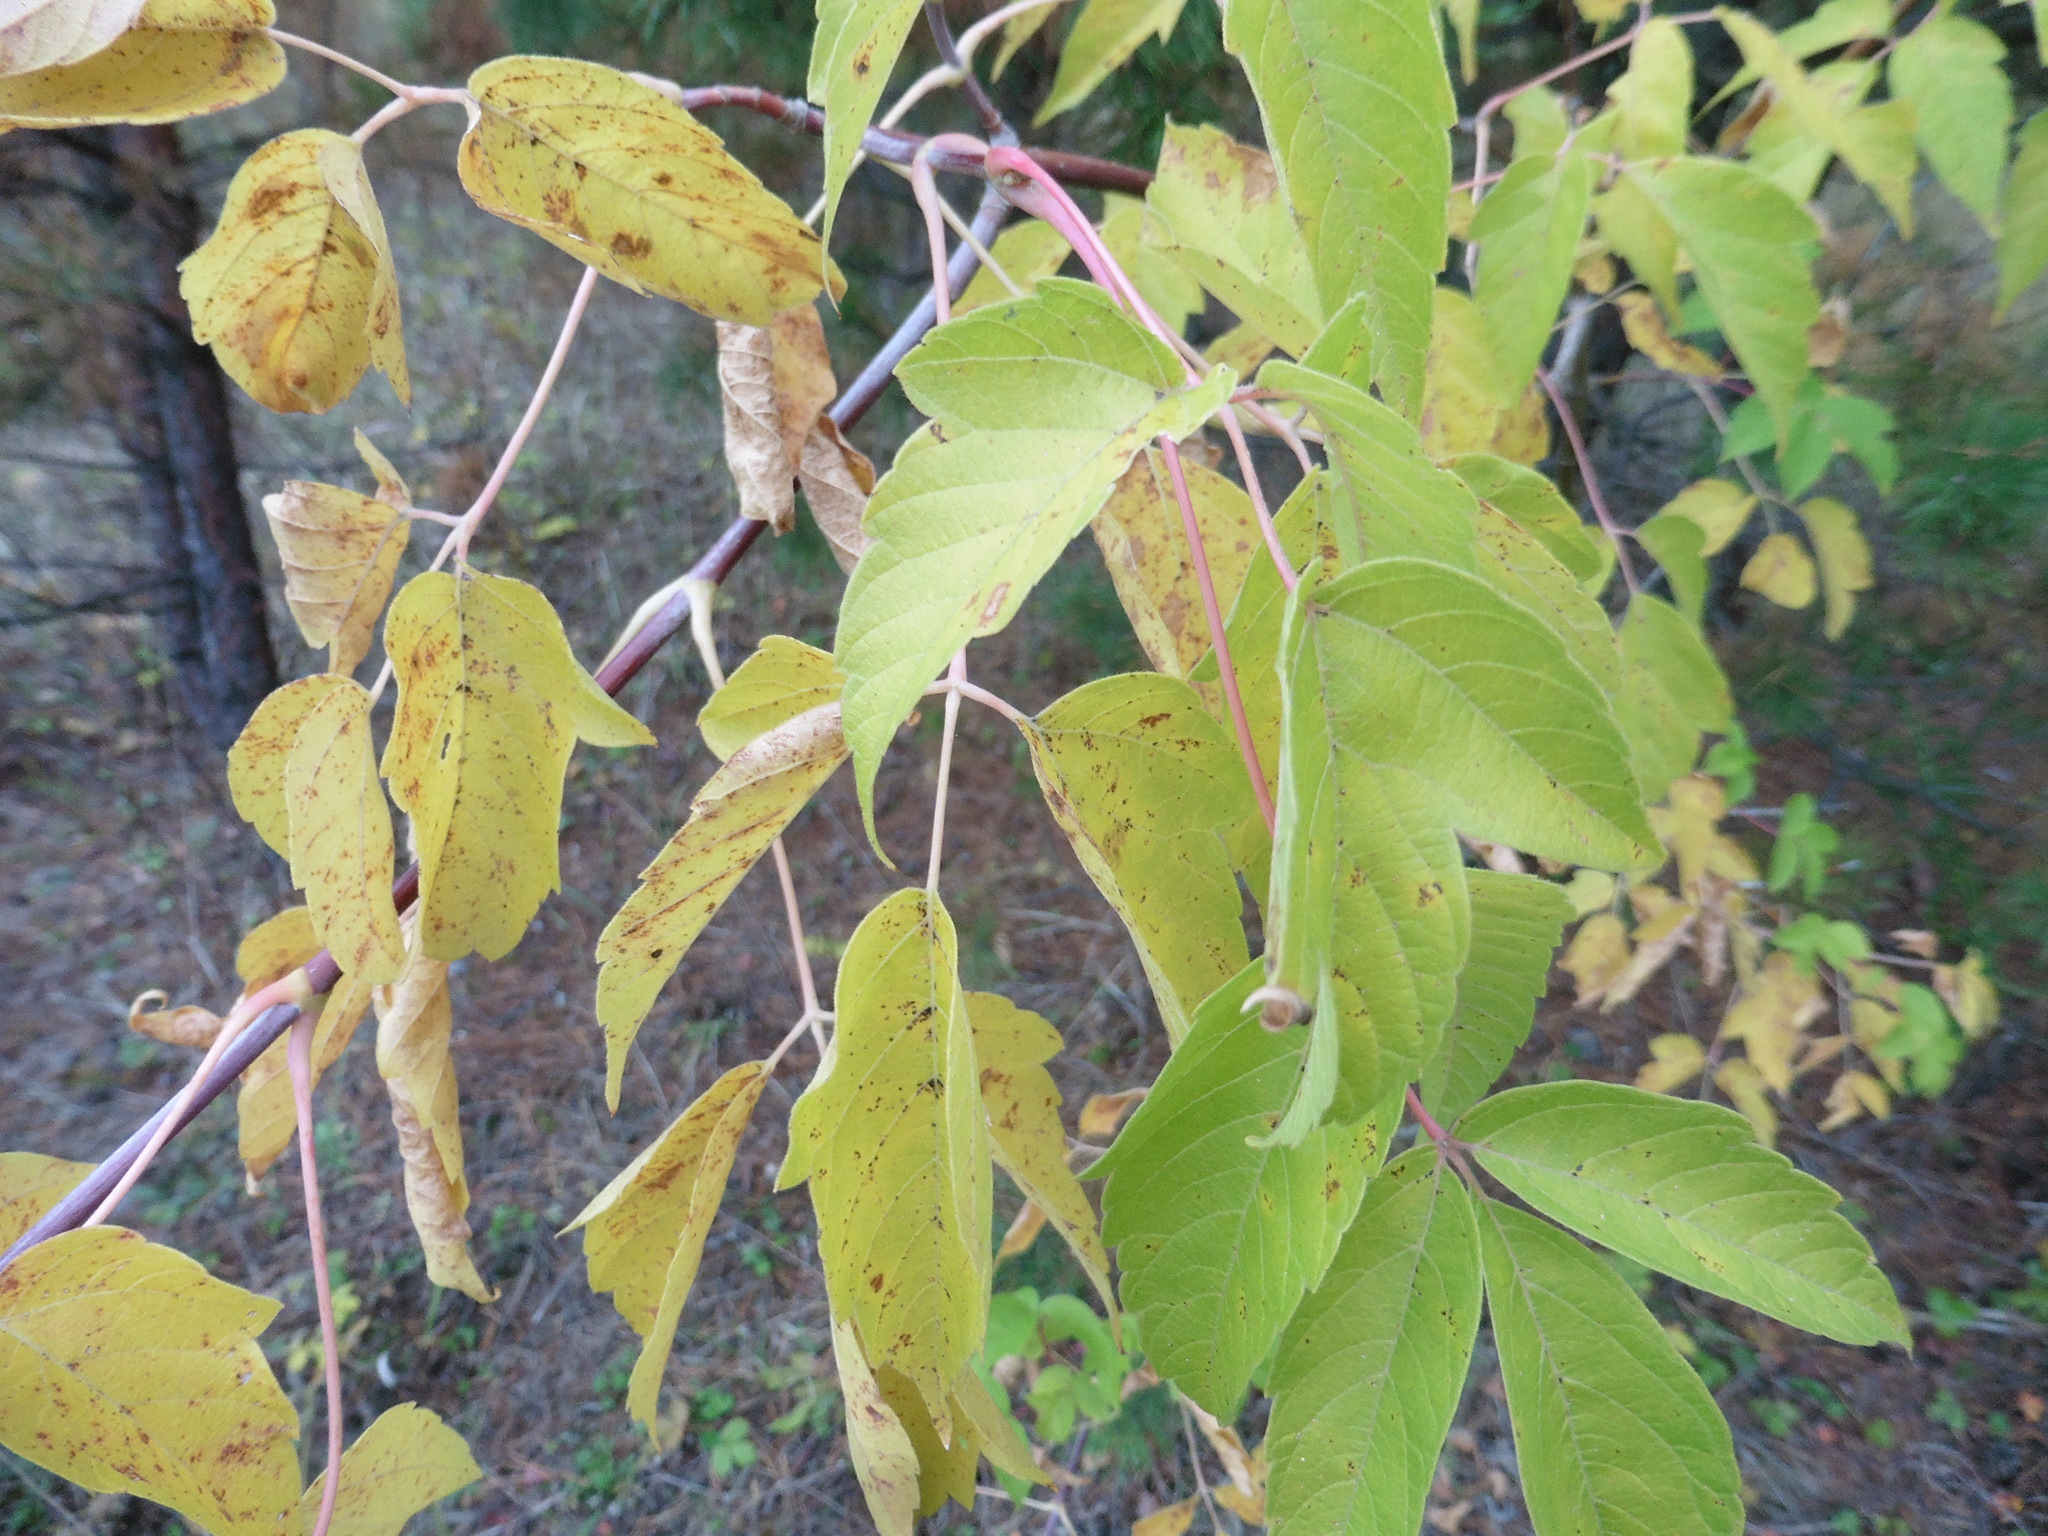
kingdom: Plantae
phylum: Tracheophyta
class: Magnoliopsida
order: Sapindales
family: Sapindaceae
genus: Acer
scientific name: Acer negundo
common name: Ashleaf maple
